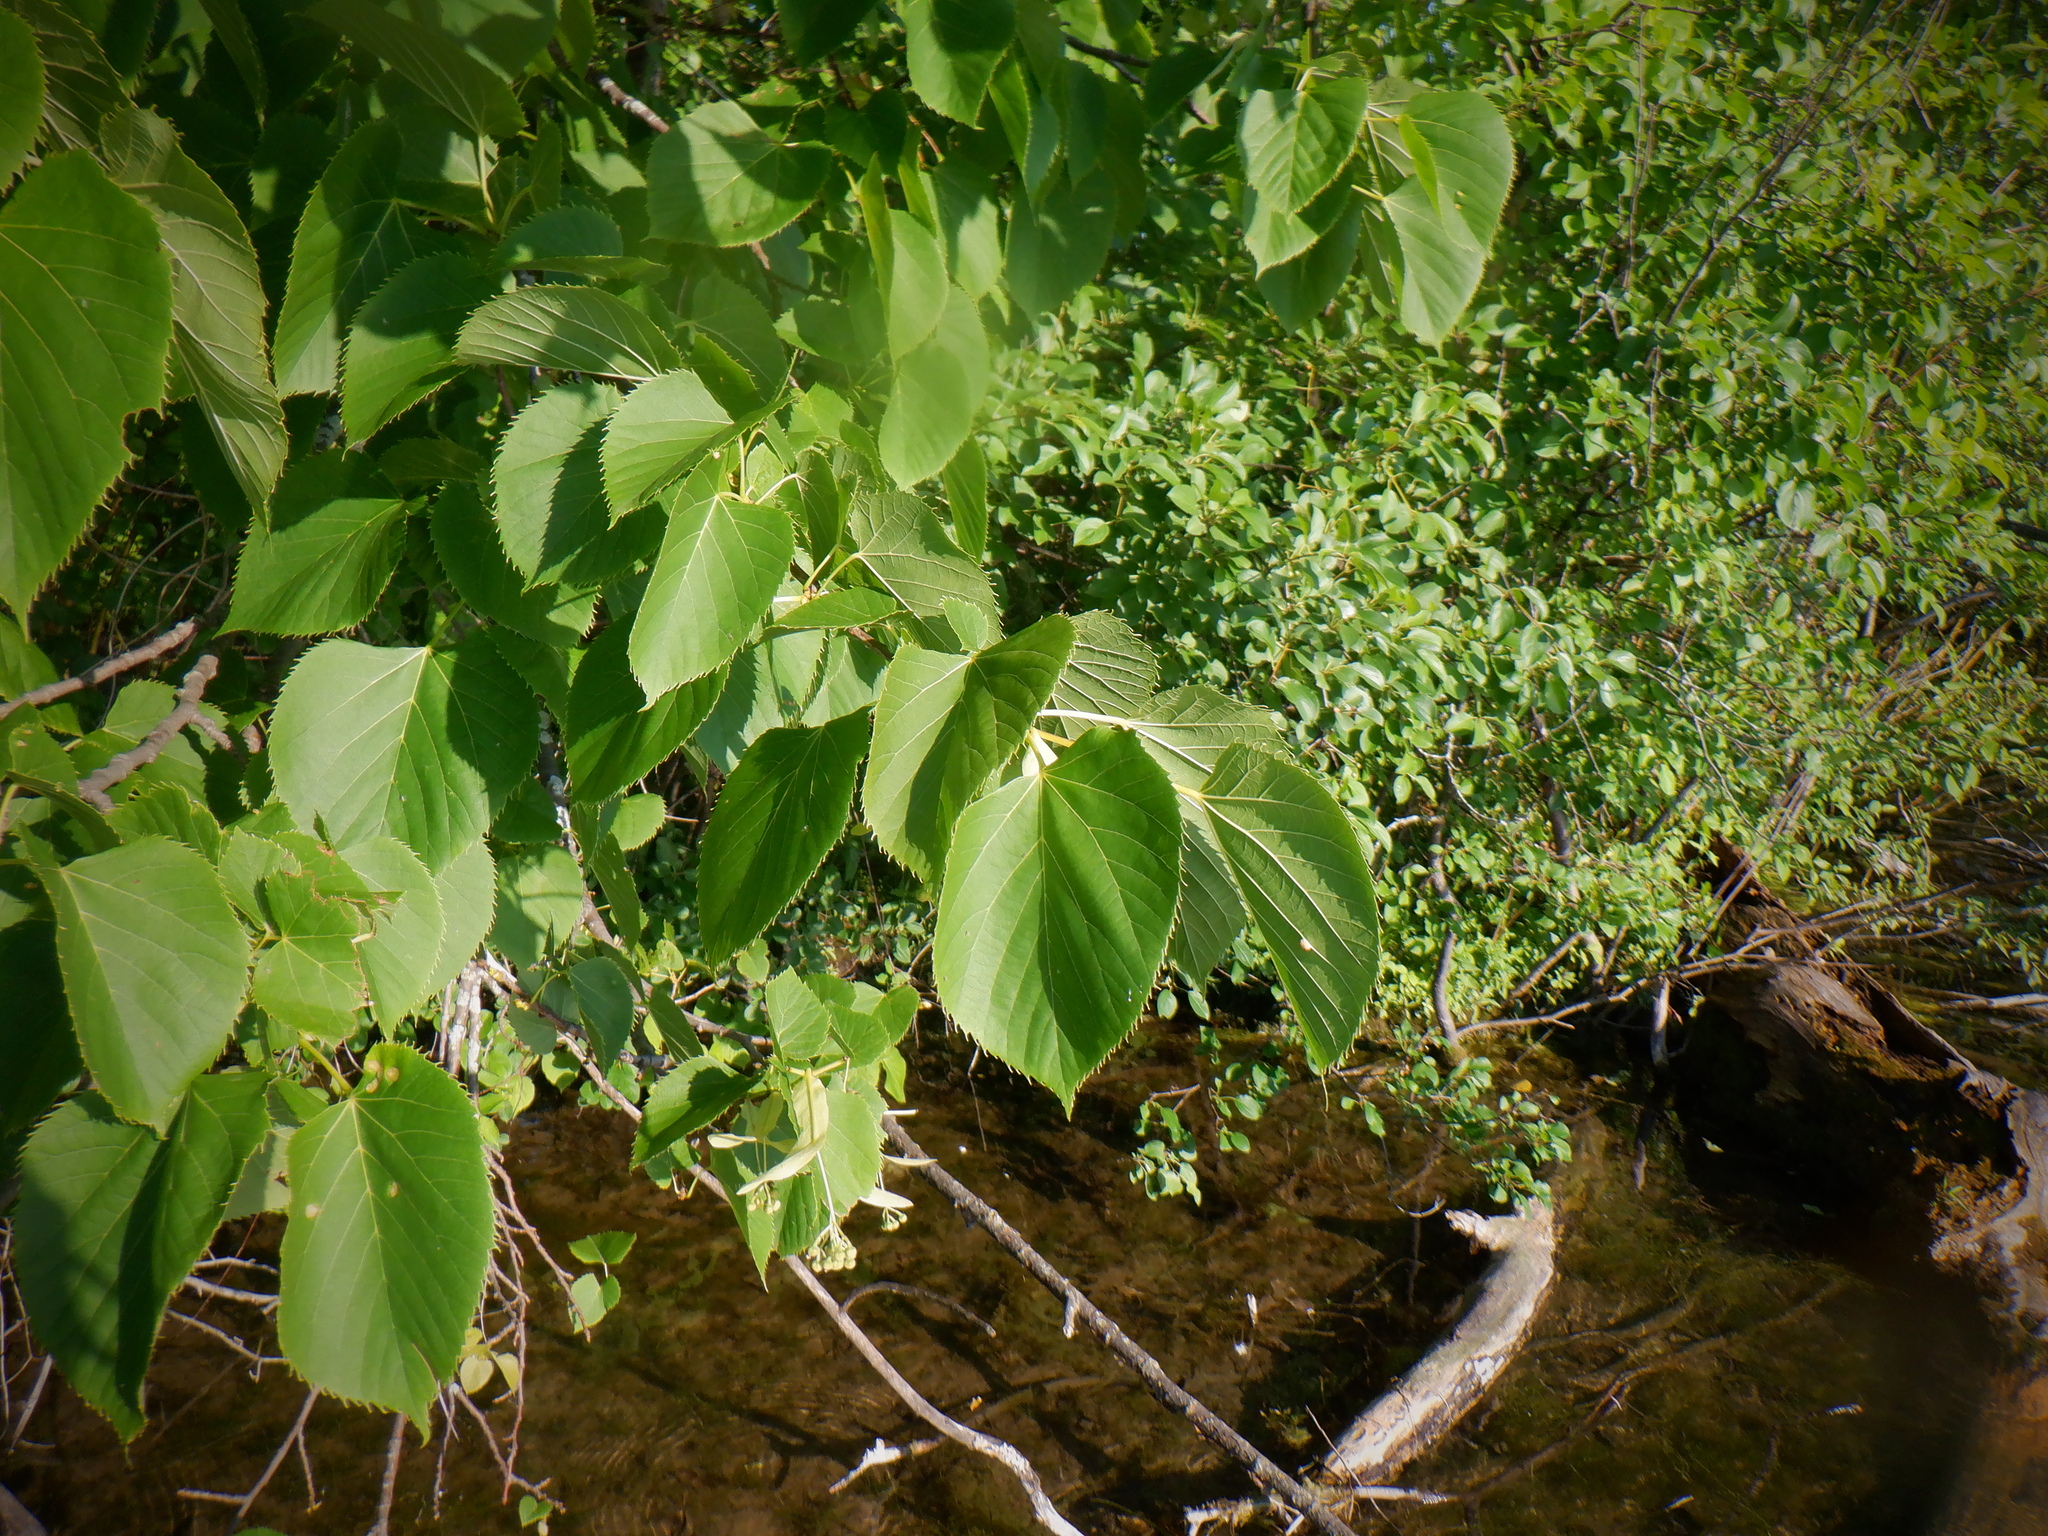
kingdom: Plantae
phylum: Tracheophyta
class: Magnoliopsida
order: Malvales
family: Malvaceae
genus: Tilia
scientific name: Tilia americana
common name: Basswood
